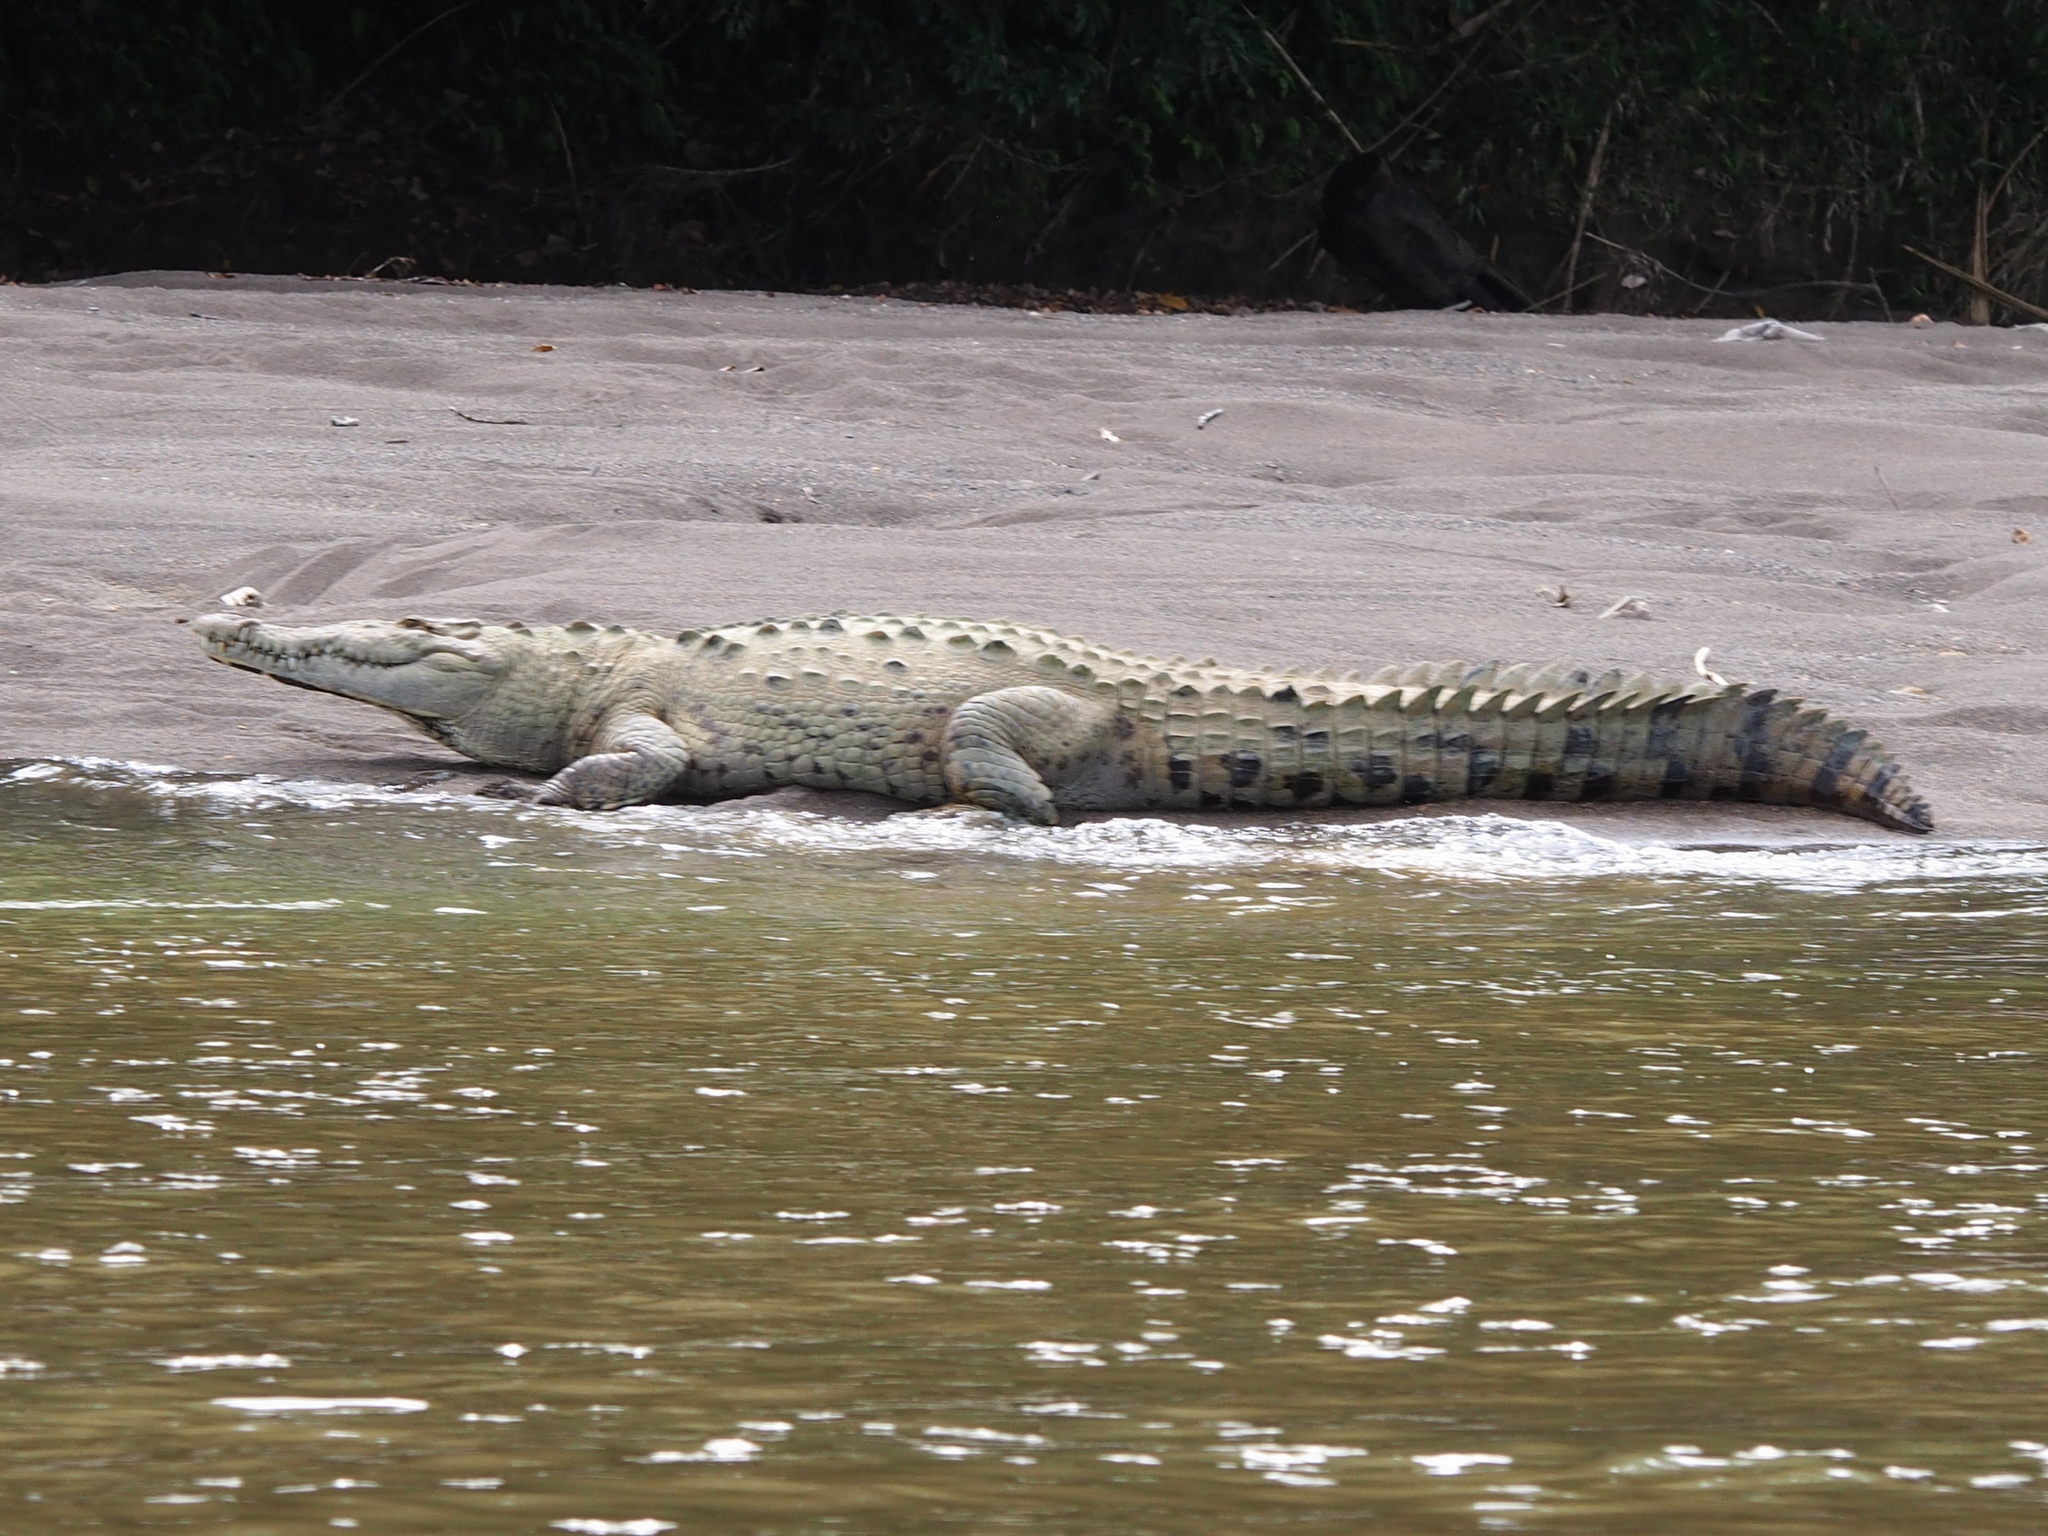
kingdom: Animalia
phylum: Chordata
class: Crocodylia
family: Crocodylidae
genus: Crocodylus
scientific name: Crocodylus acutus
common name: American crocodile
